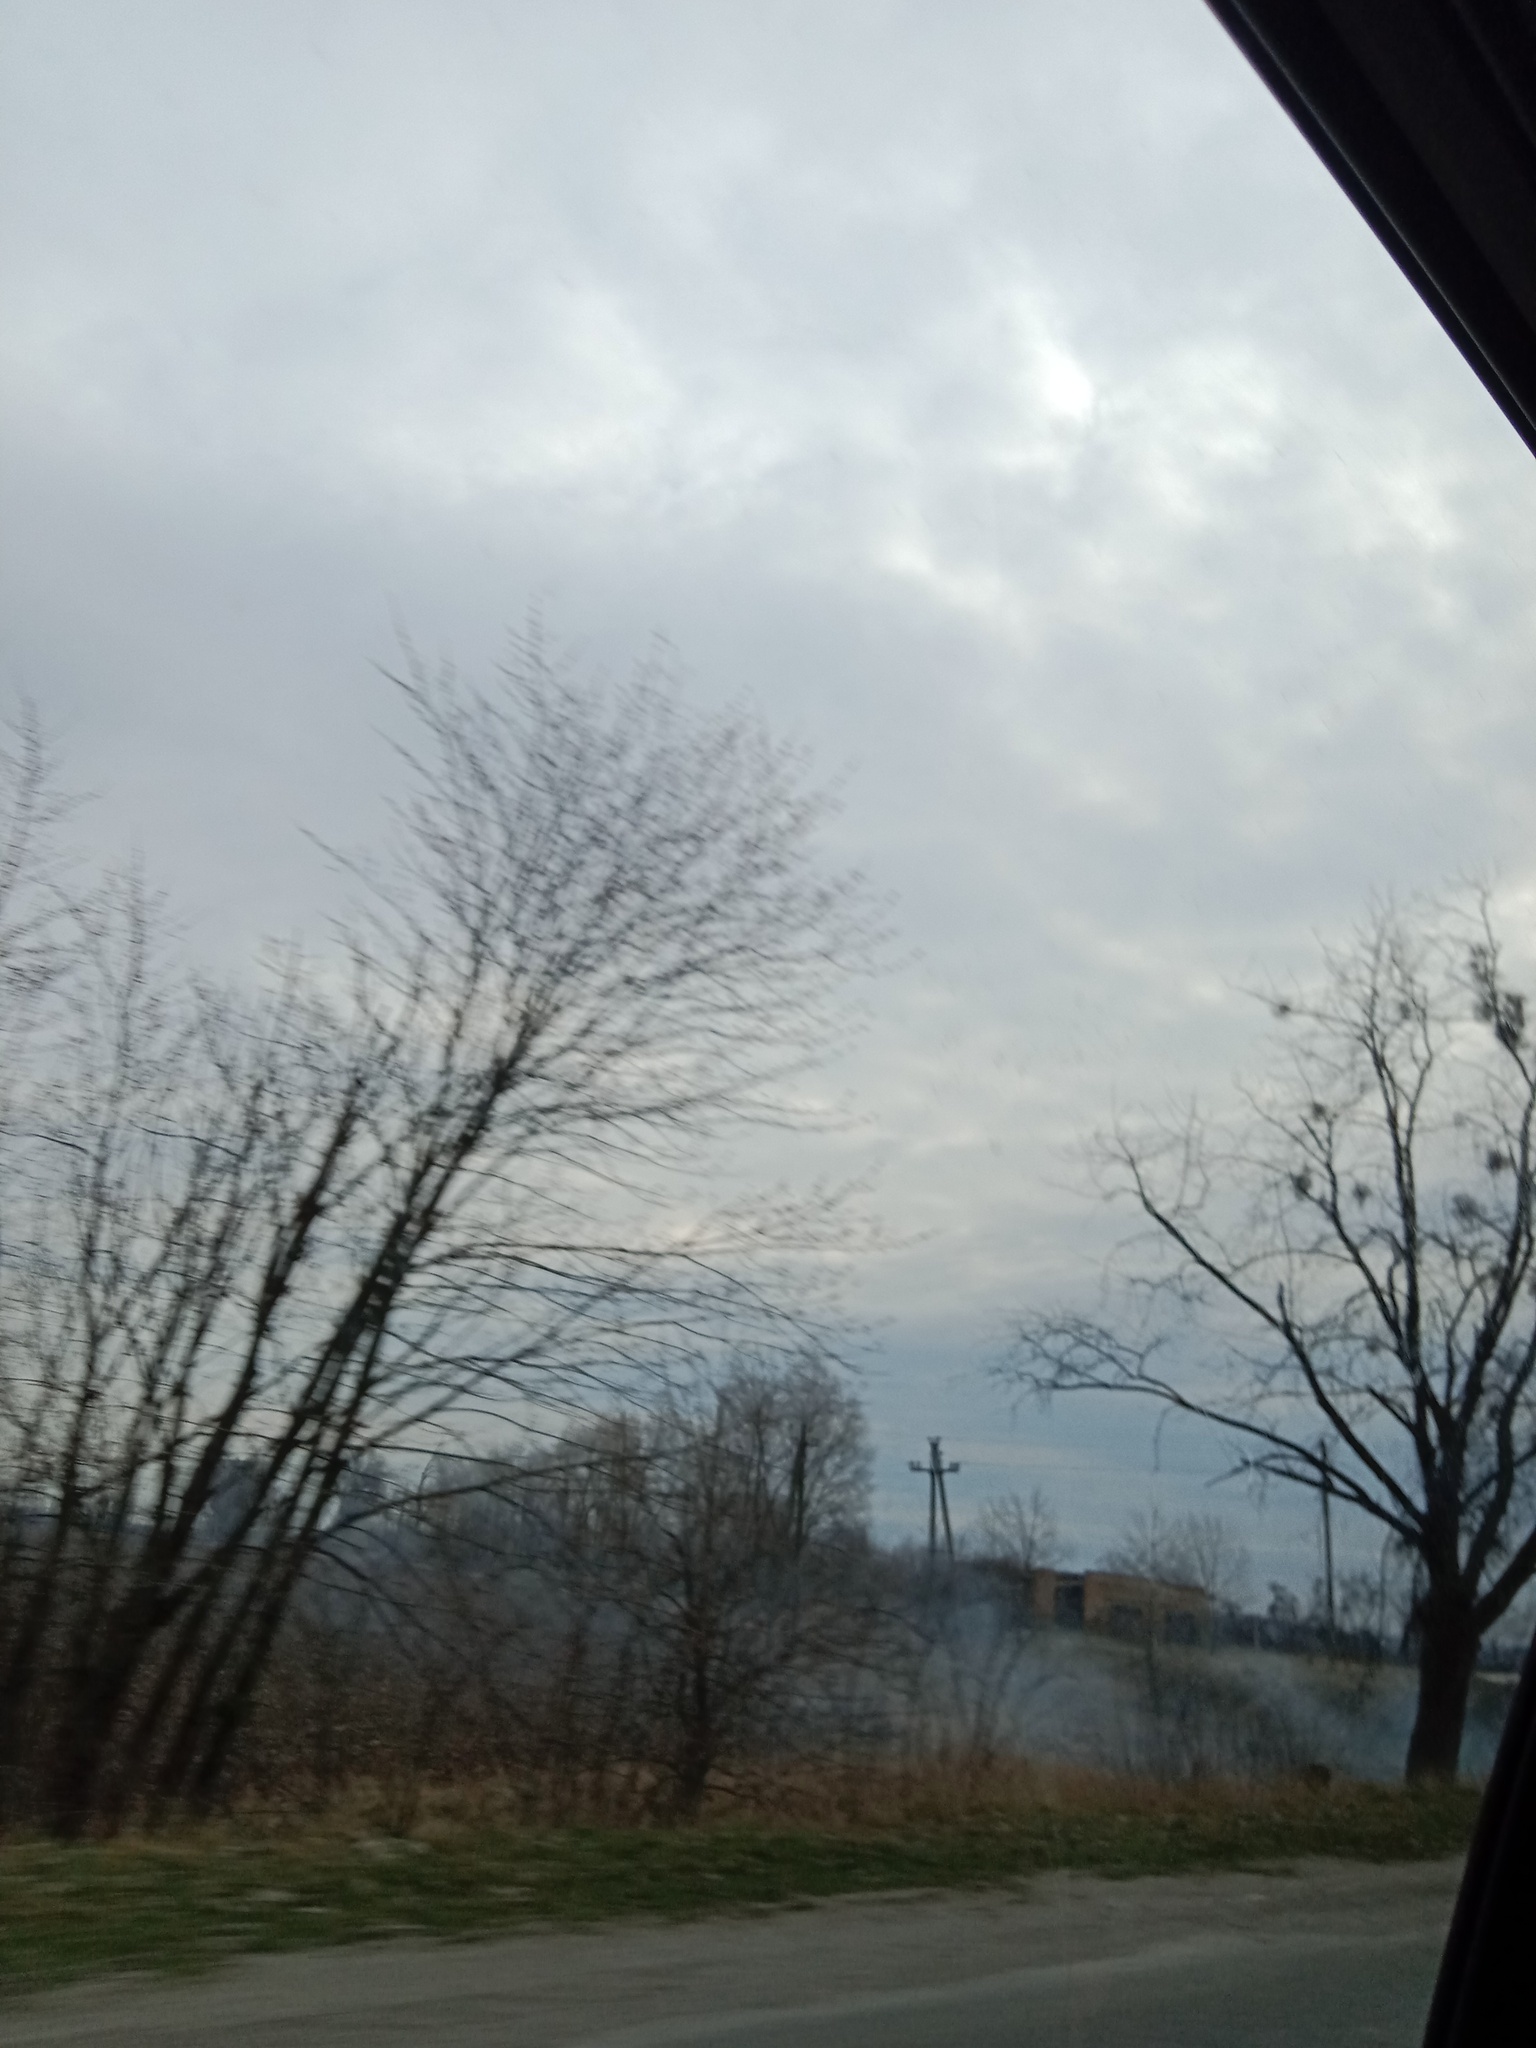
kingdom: Plantae
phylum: Tracheophyta
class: Magnoliopsida
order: Santalales
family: Viscaceae
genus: Viscum
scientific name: Viscum album
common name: Mistletoe
